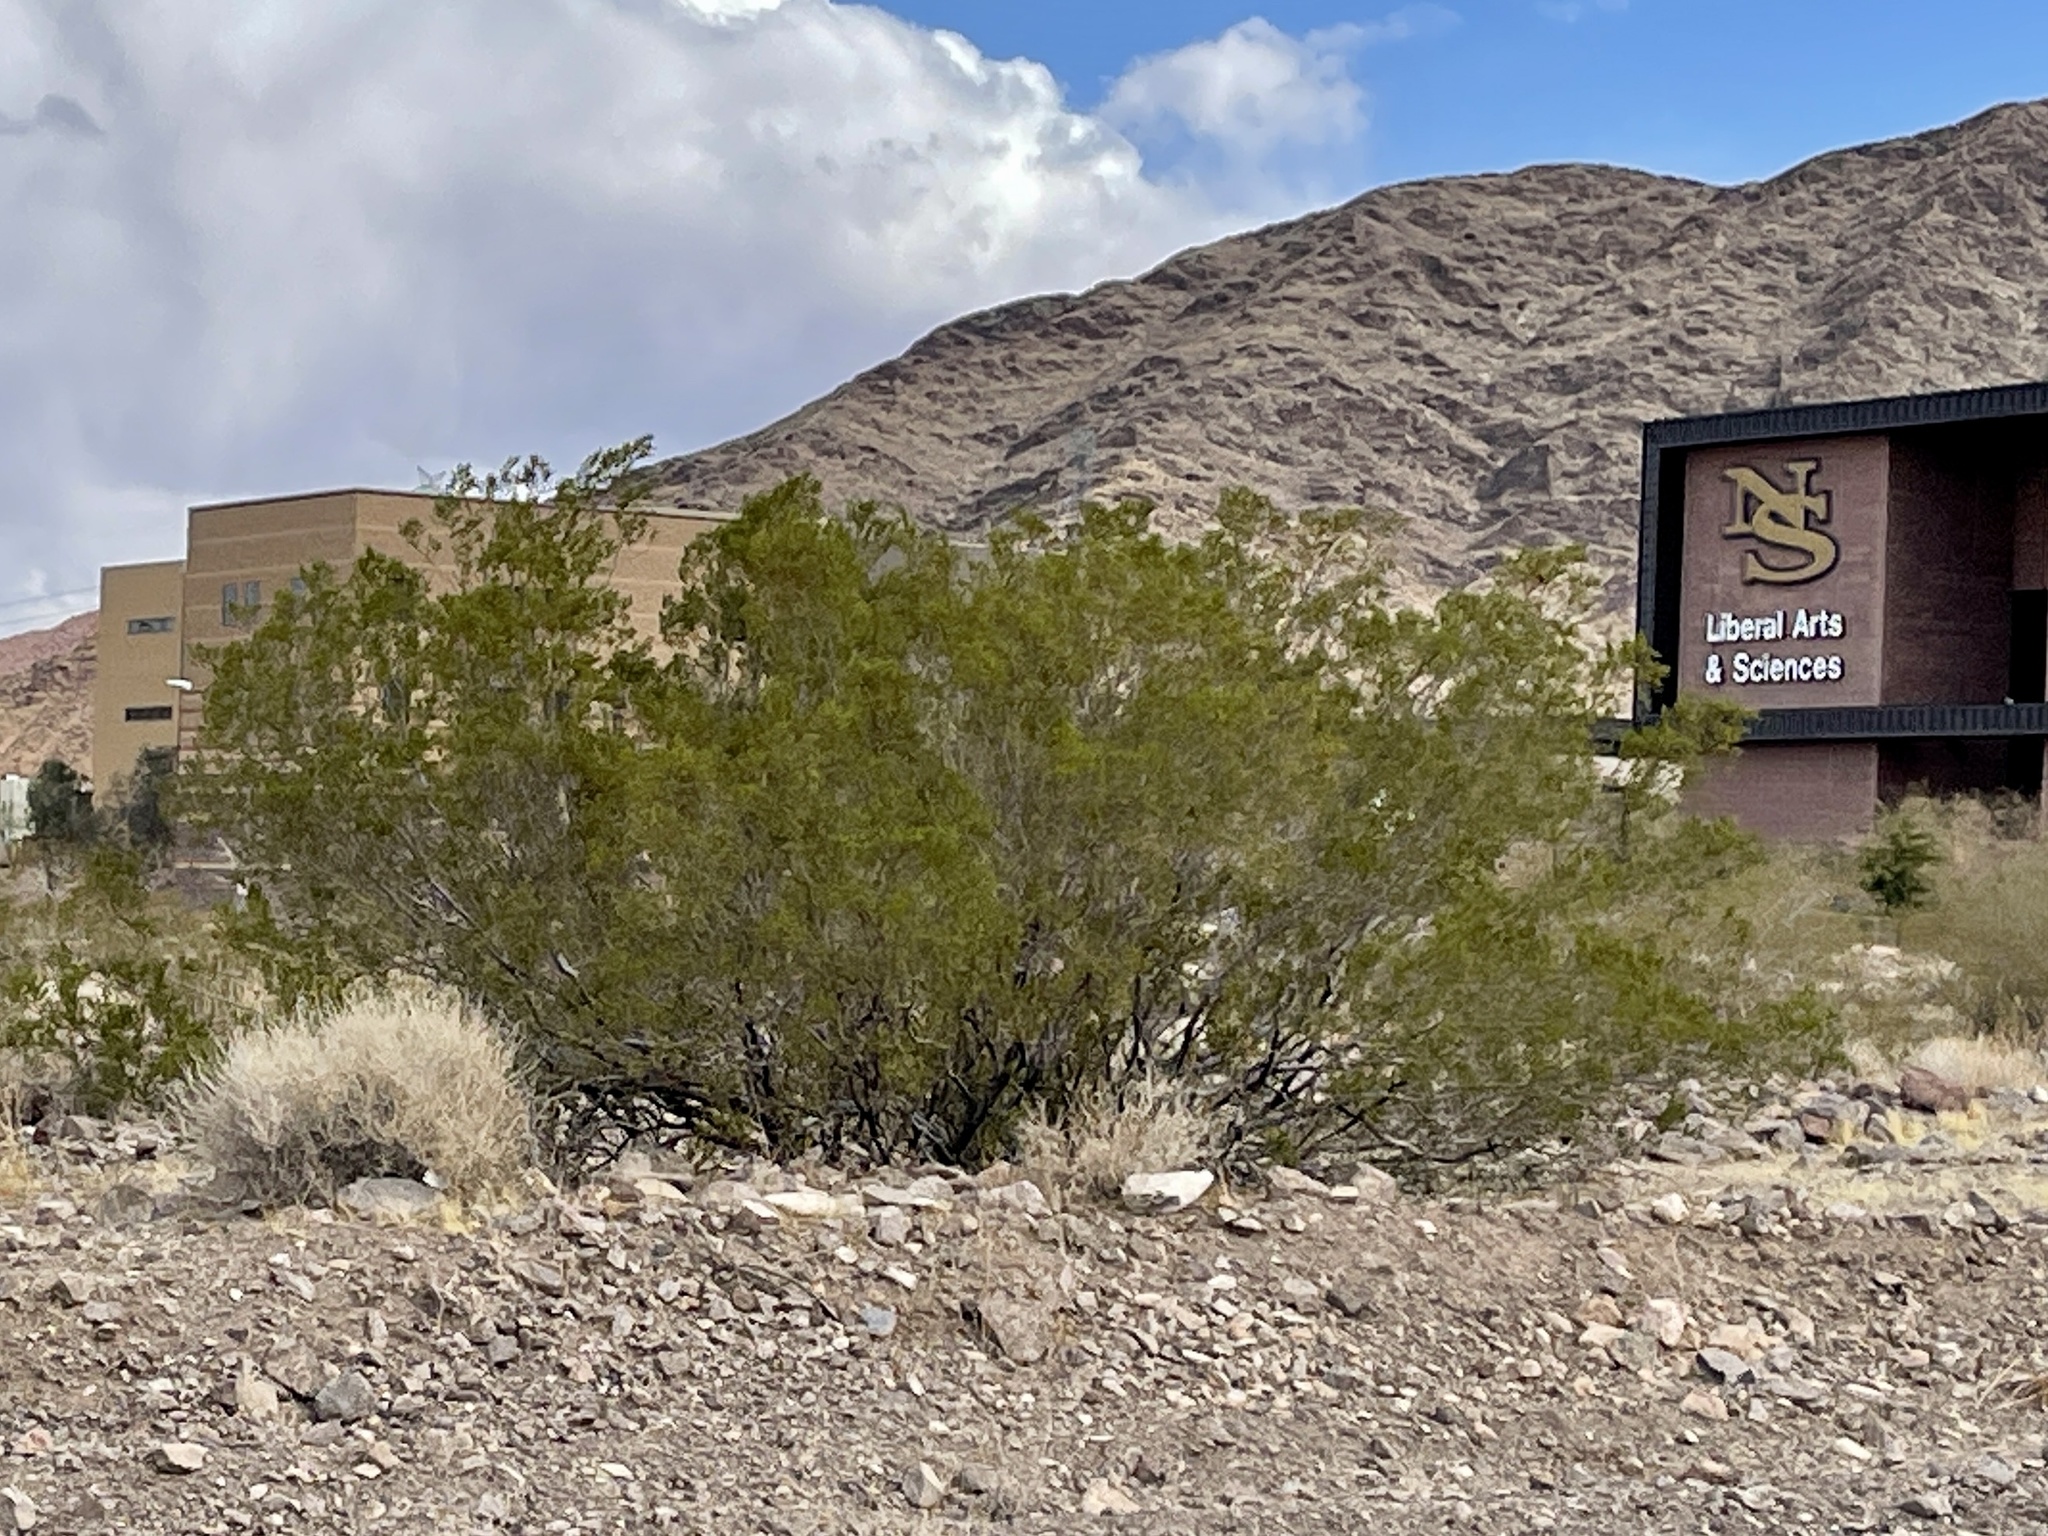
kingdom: Plantae
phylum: Tracheophyta
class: Magnoliopsida
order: Zygophyllales
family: Zygophyllaceae
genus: Larrea
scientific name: Larrea tridentata
